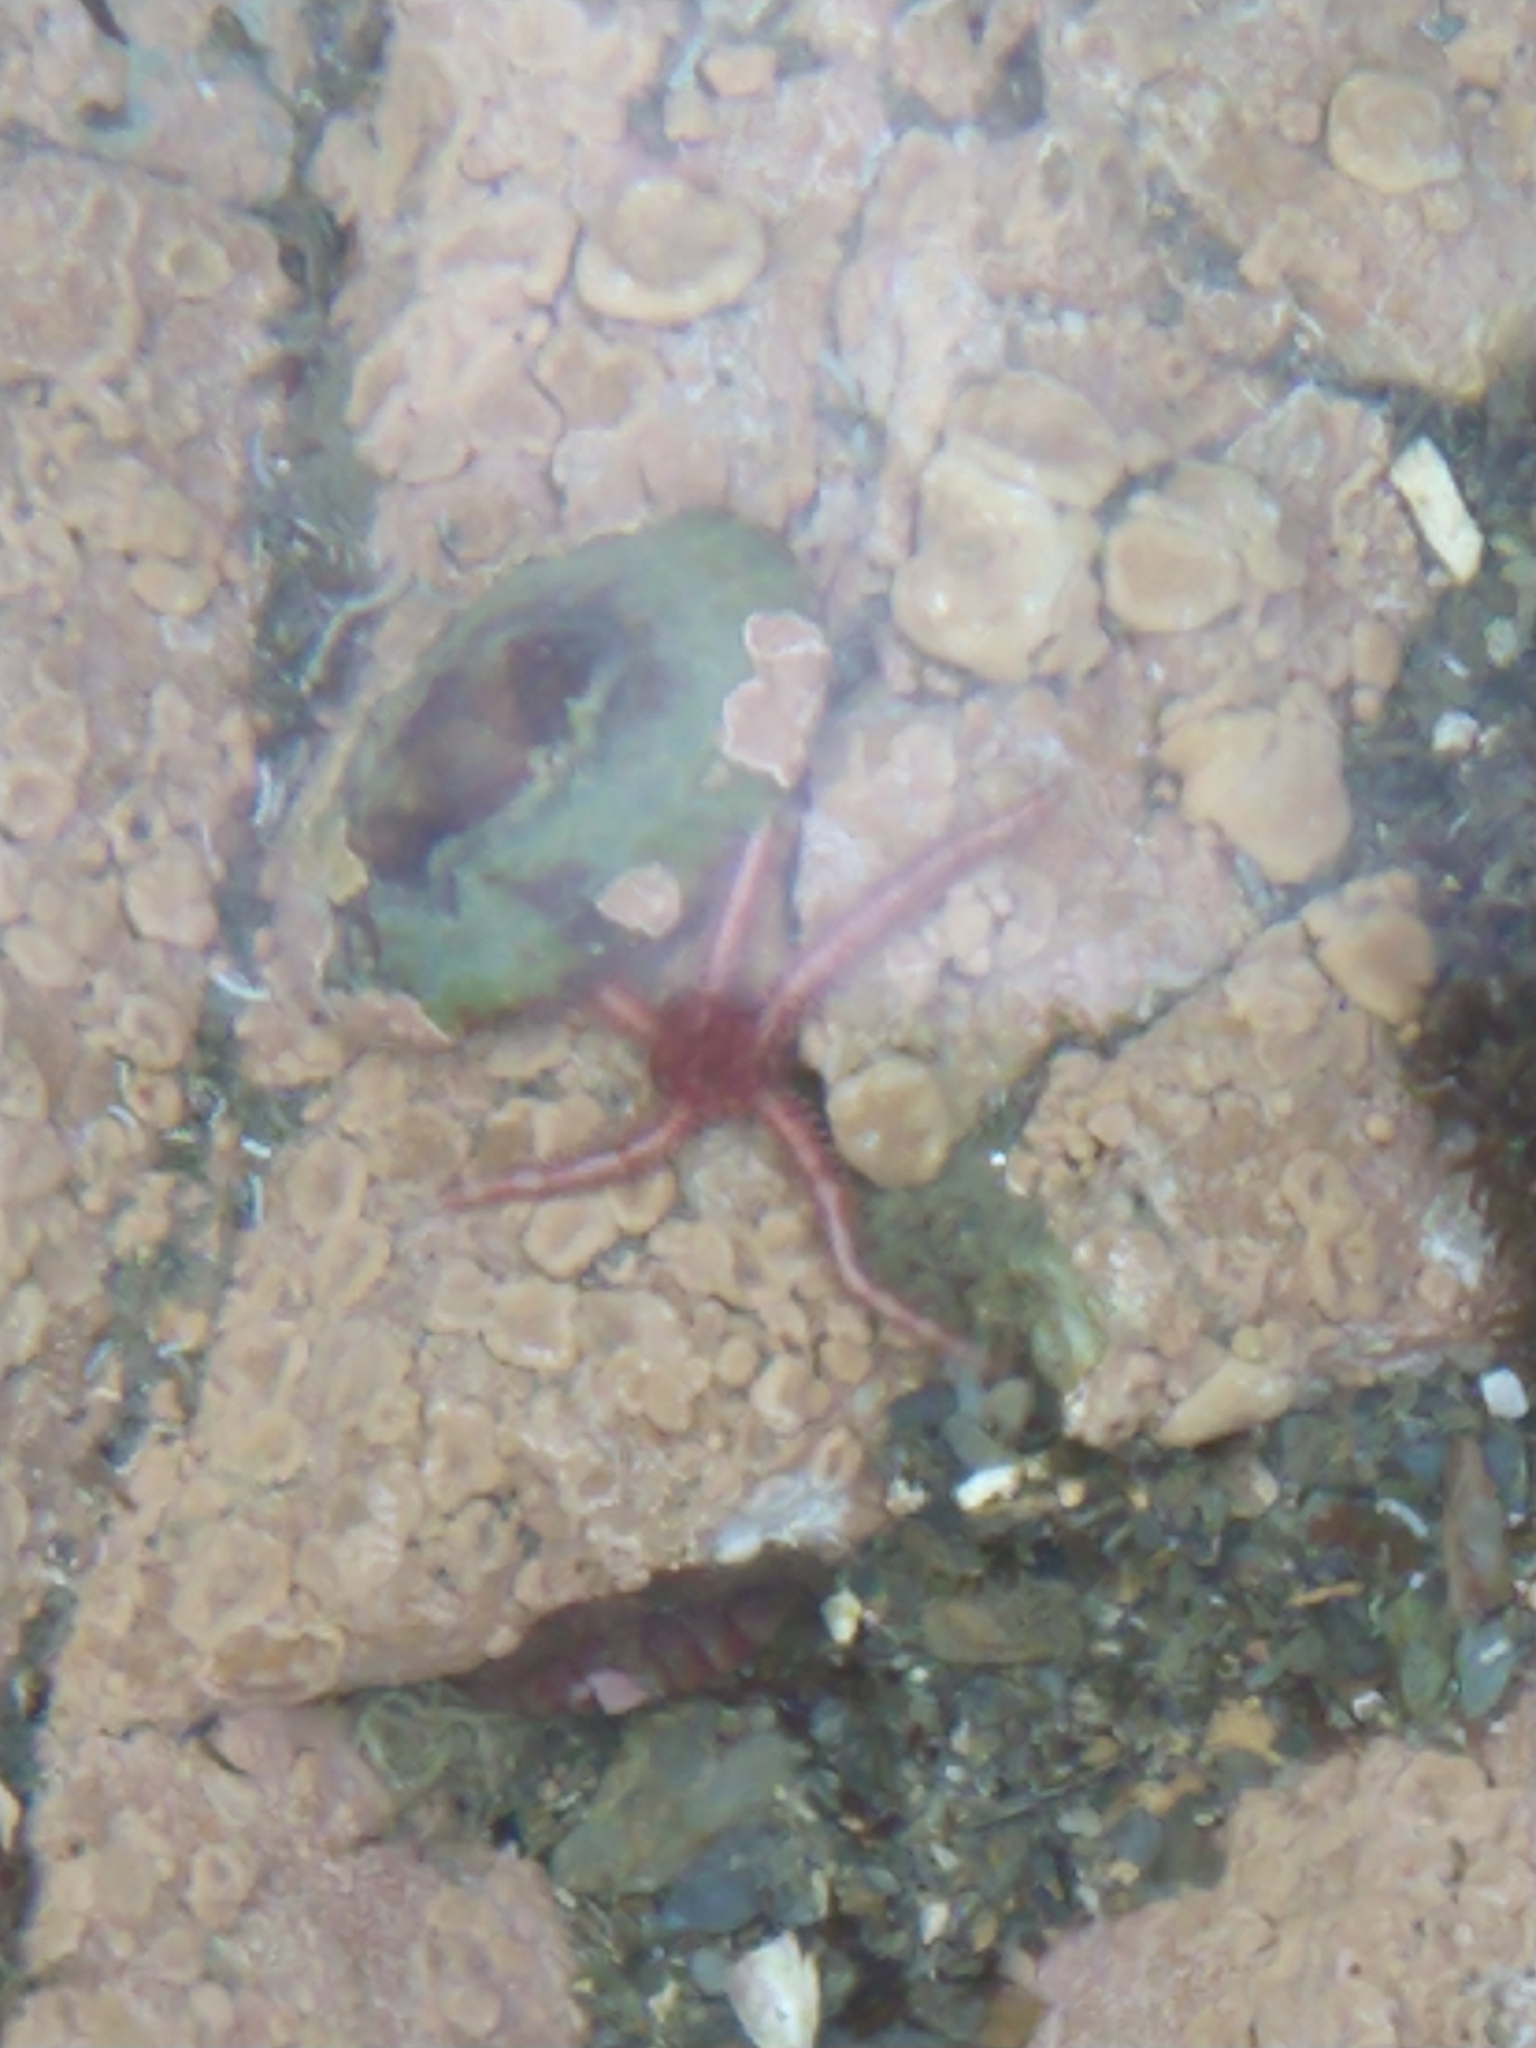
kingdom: Animalia
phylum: Echinodermata
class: Ophiuroidea
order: Amphilepidida
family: Ophiactidae
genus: Ophiactis
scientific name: Ophiactis asperula
